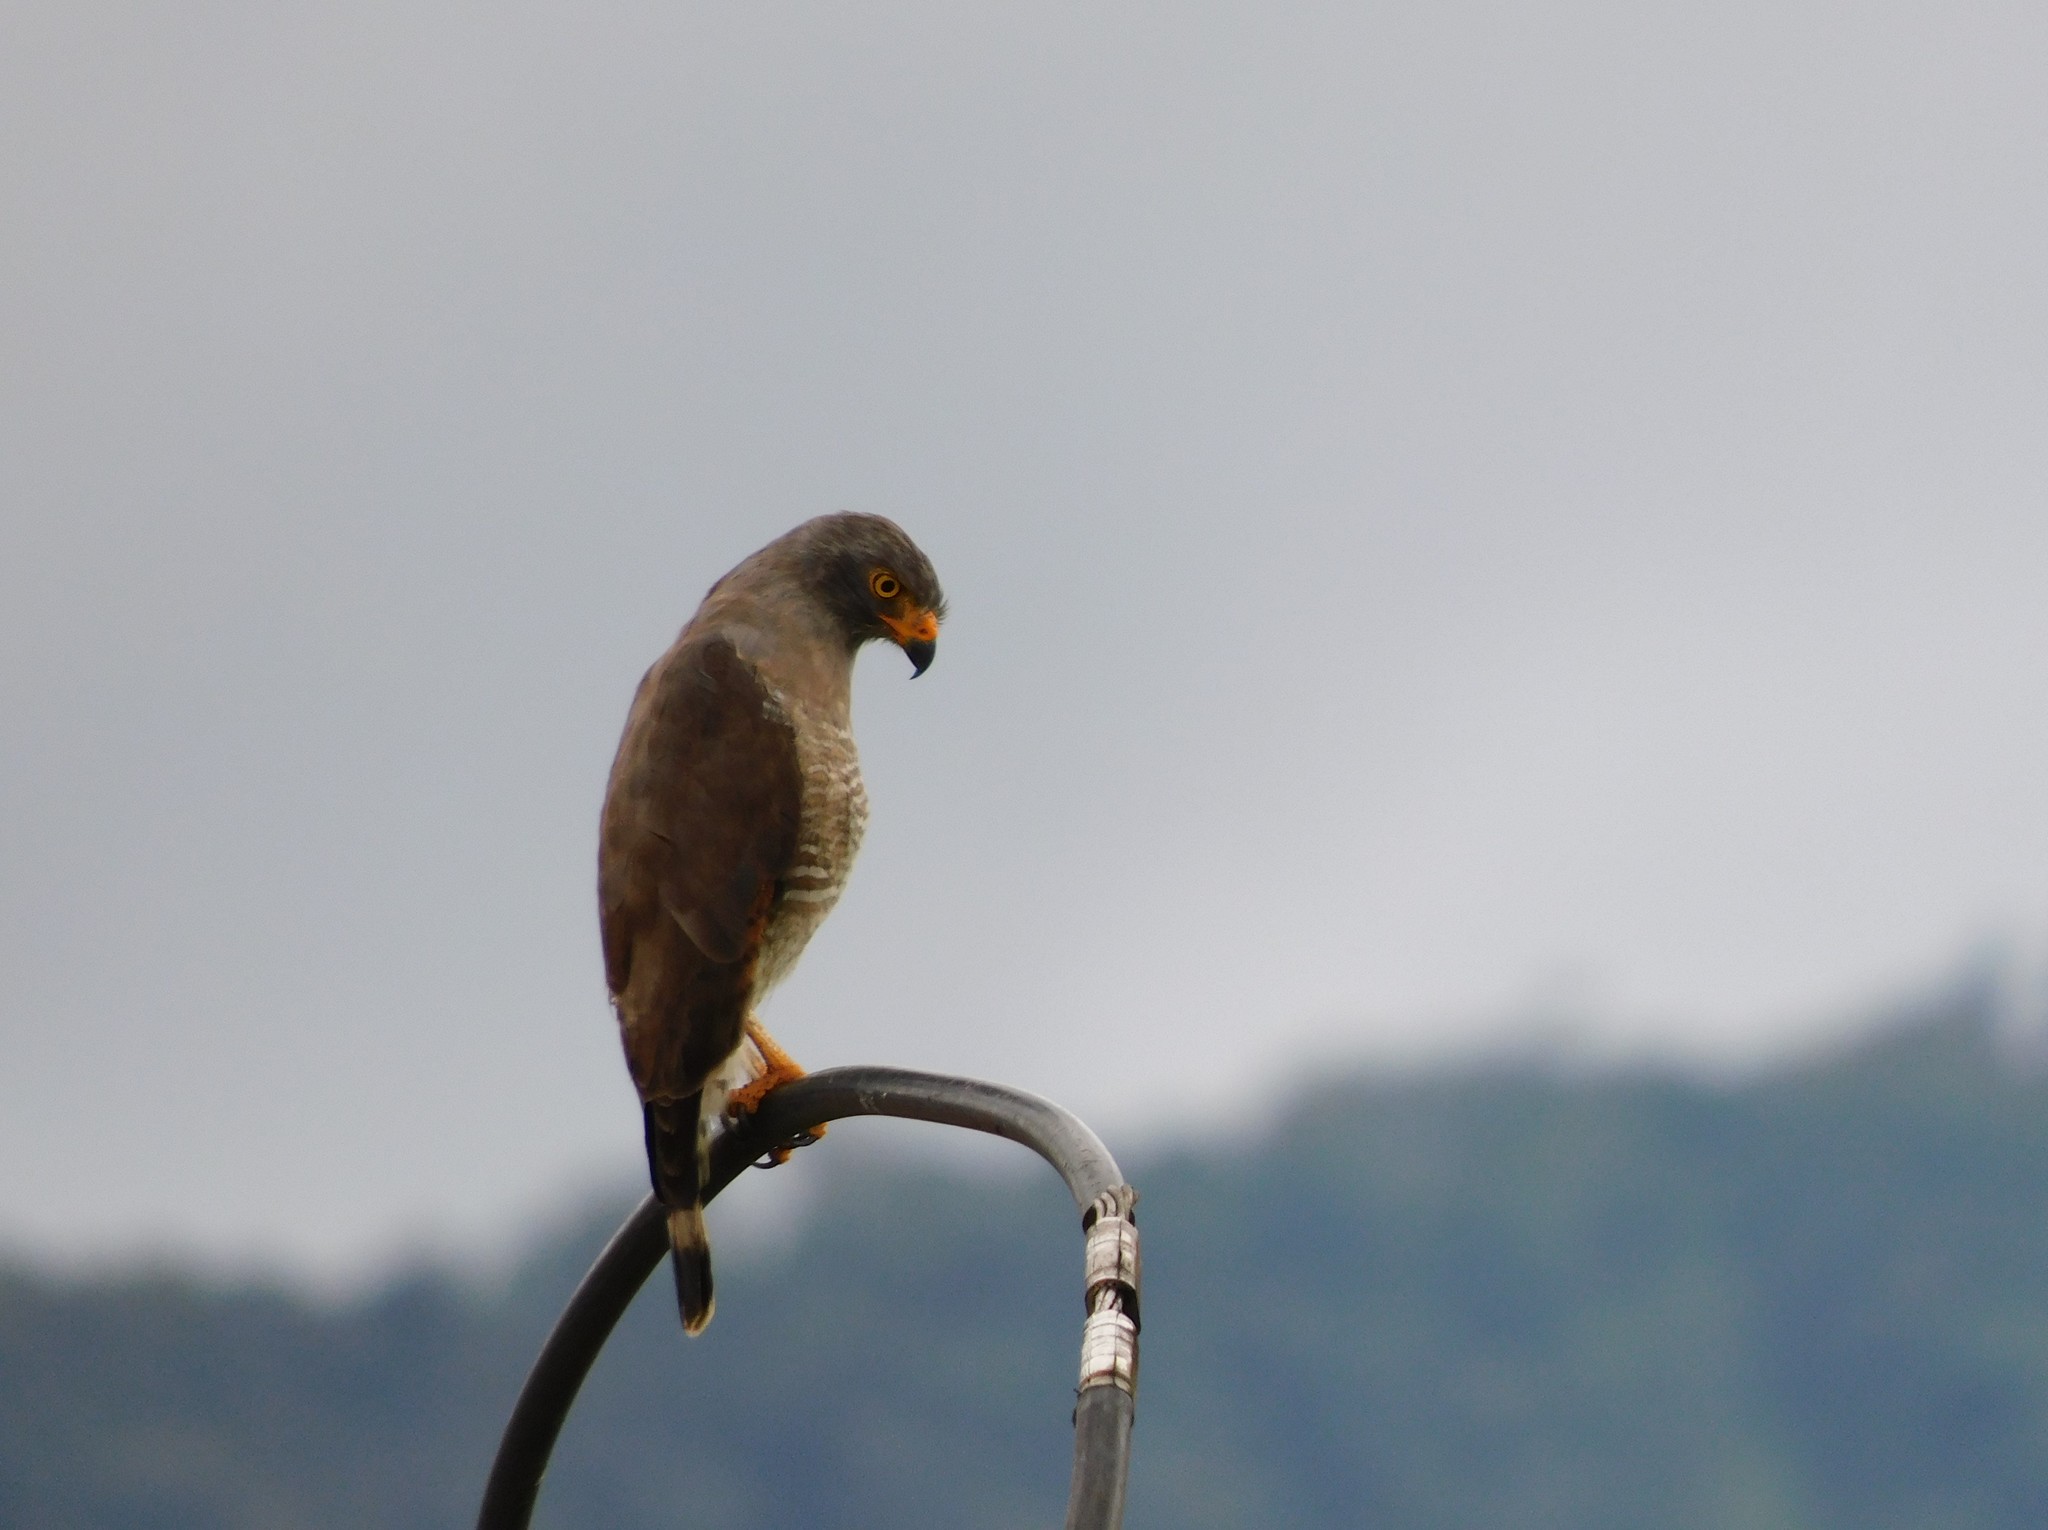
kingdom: Animalia
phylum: Chordata
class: Aves
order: Accipitriformes
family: Accipitridae
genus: Rupornis
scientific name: Rupornis magnirostris
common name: Roadside hawk
